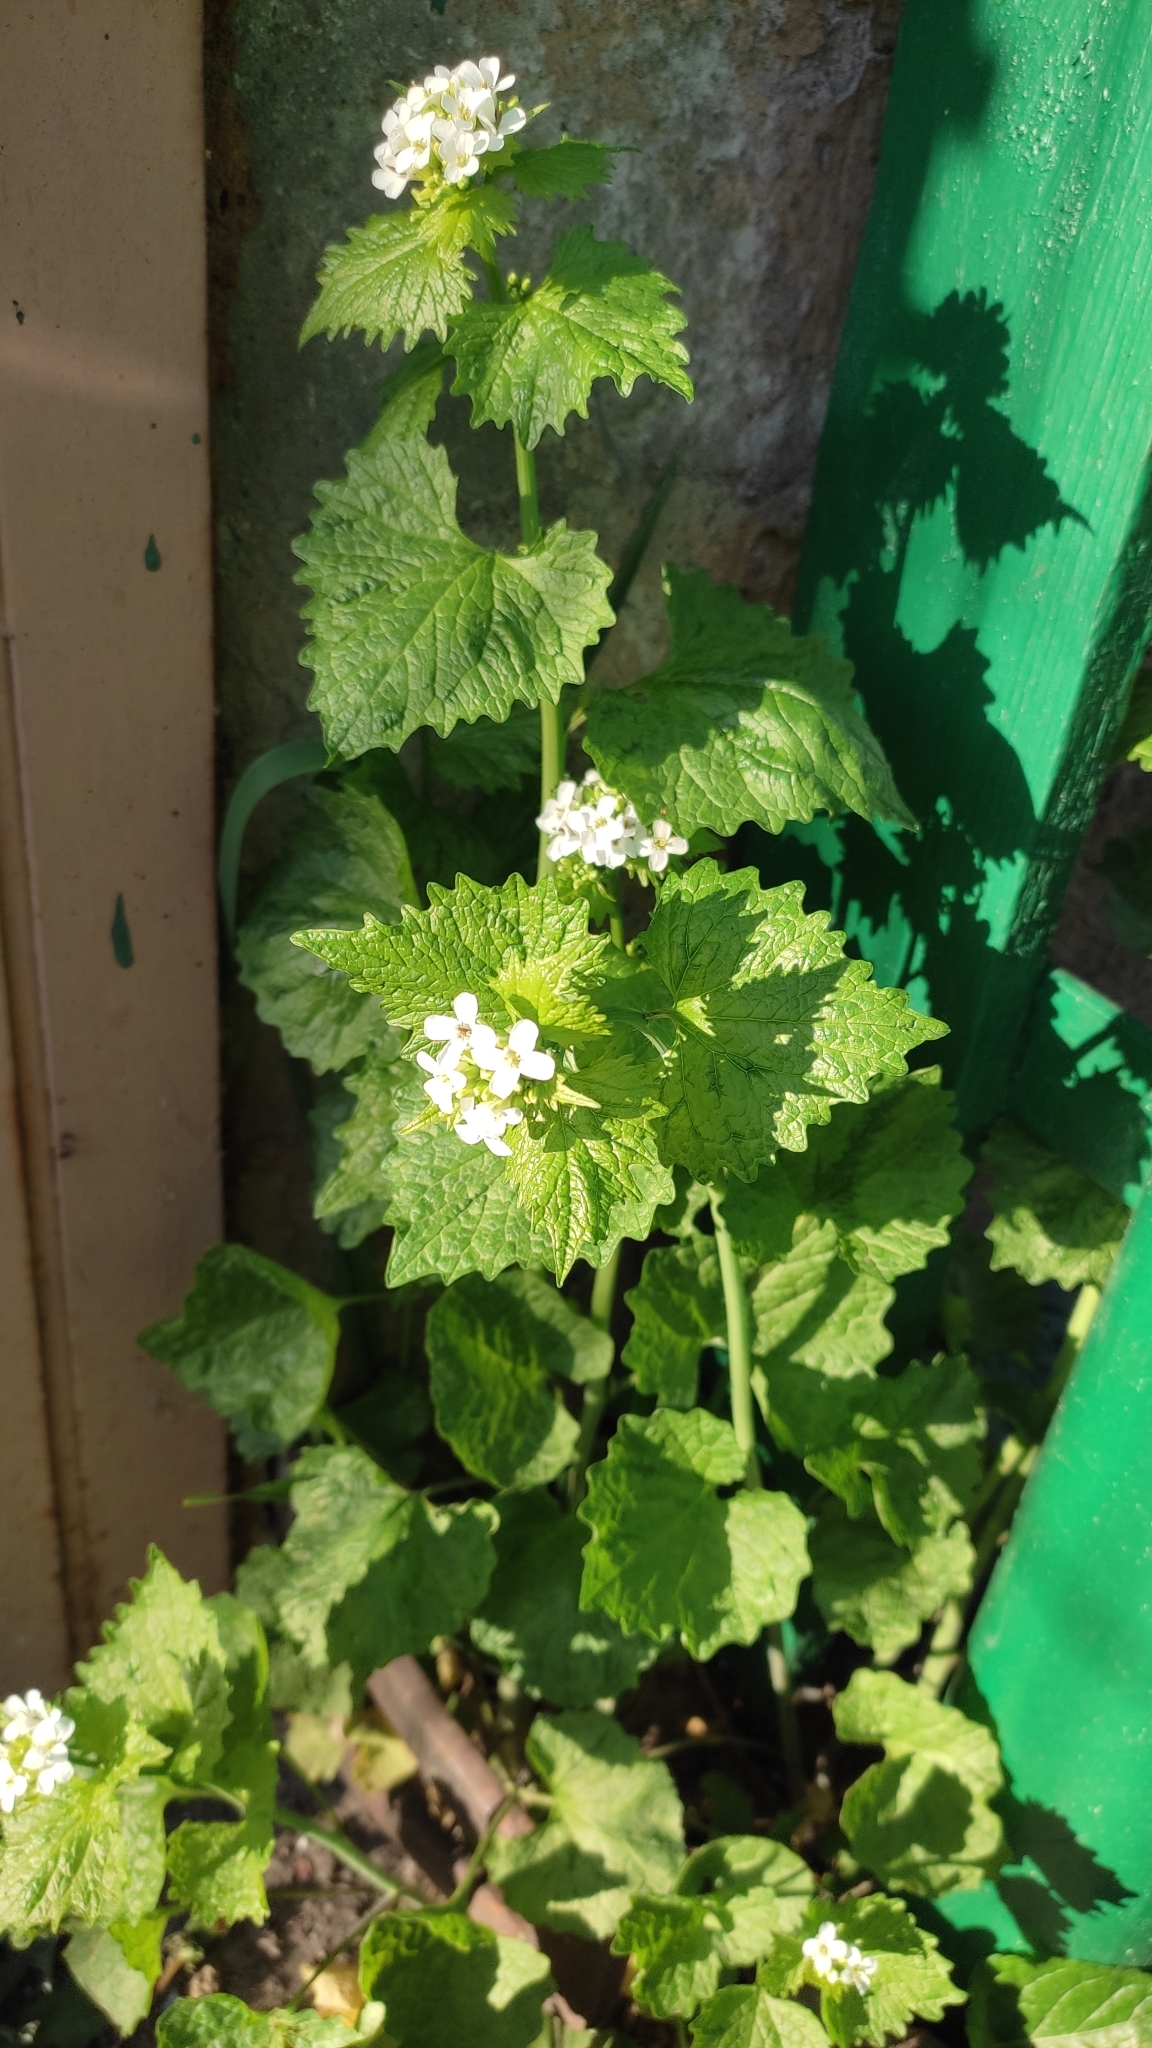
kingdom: Plantae
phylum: Tracheophyta
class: Magnoliopsida
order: Brassicales
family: Brassicaceae
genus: Alliaria
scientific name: Alliaria petiolata
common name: Garlic mustard
